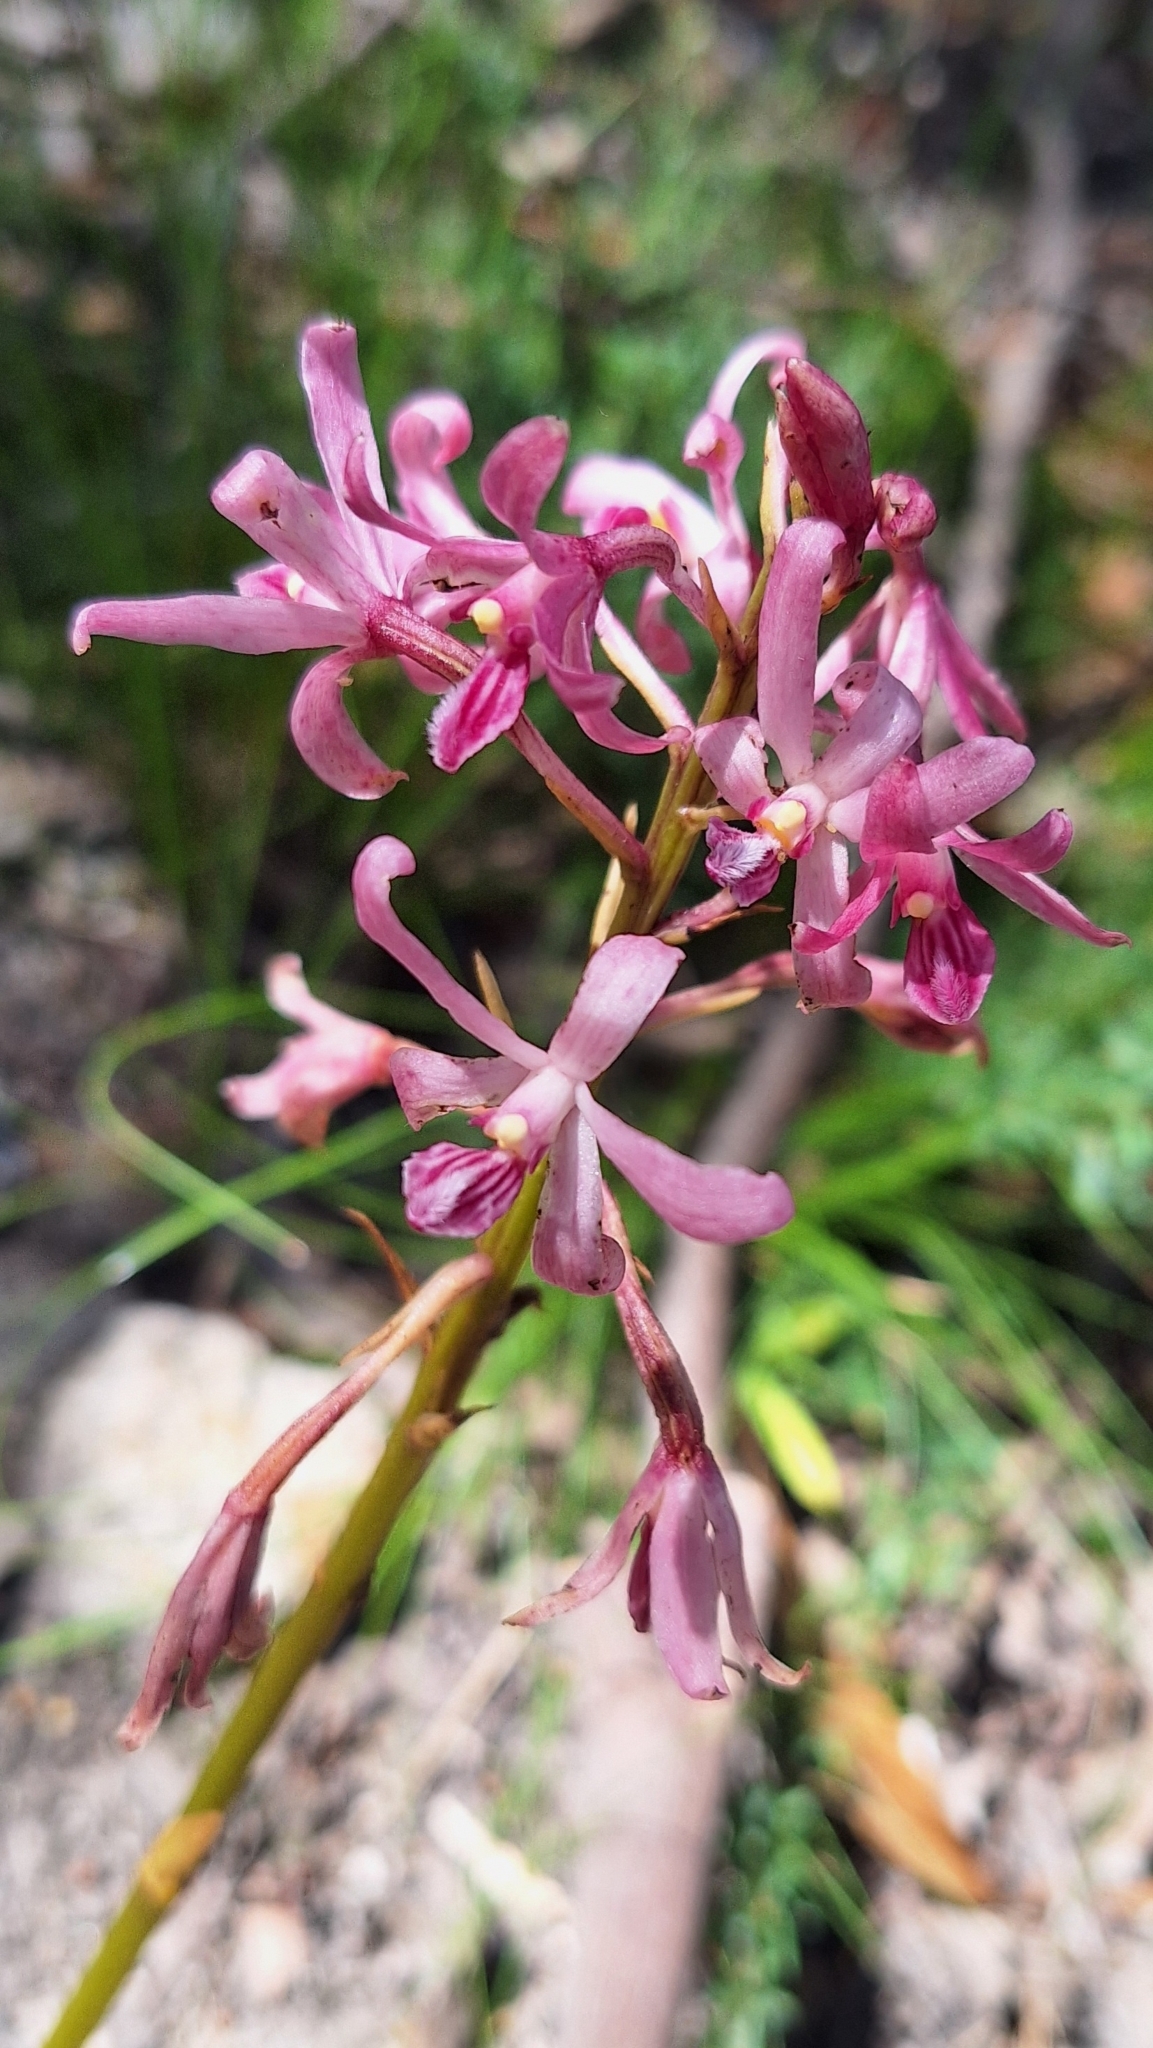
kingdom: Plantae
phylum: Tracheophyta
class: Liliopsida
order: Asparagales
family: Orchidaceae
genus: Dipodium
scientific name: Dipodium roseum
